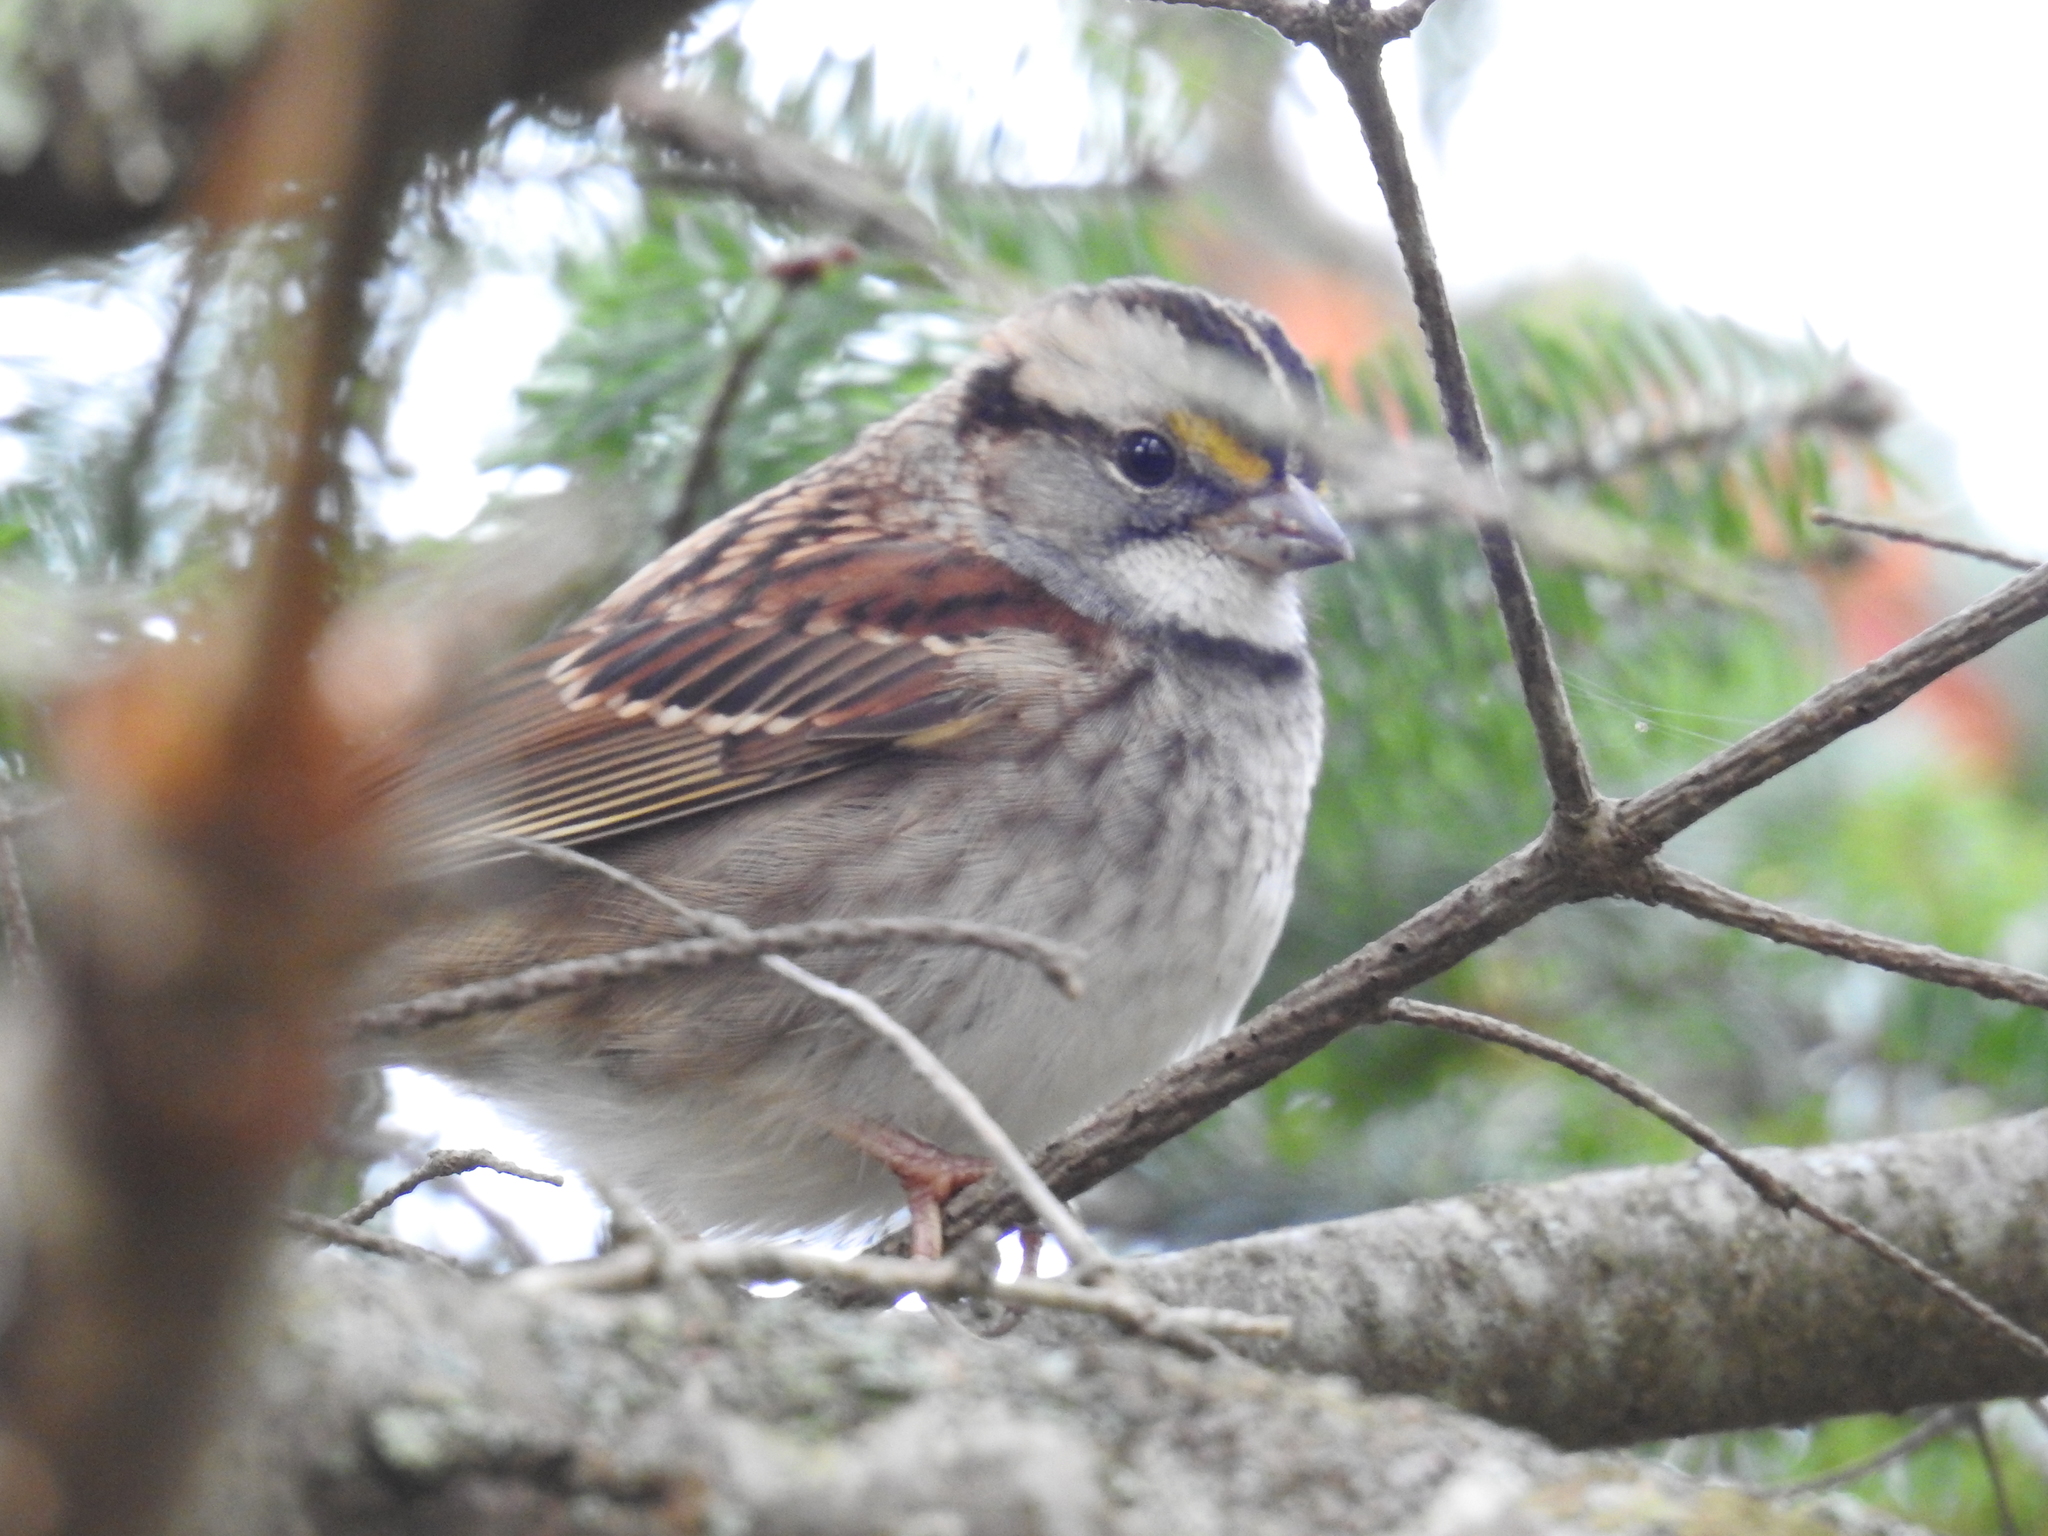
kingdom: Animalia
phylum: Chordata
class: Aves
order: Passeriformes
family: Passerellidae
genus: Zonotrichia
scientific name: Zonotrichia albicollis
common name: White-throated sparrow
